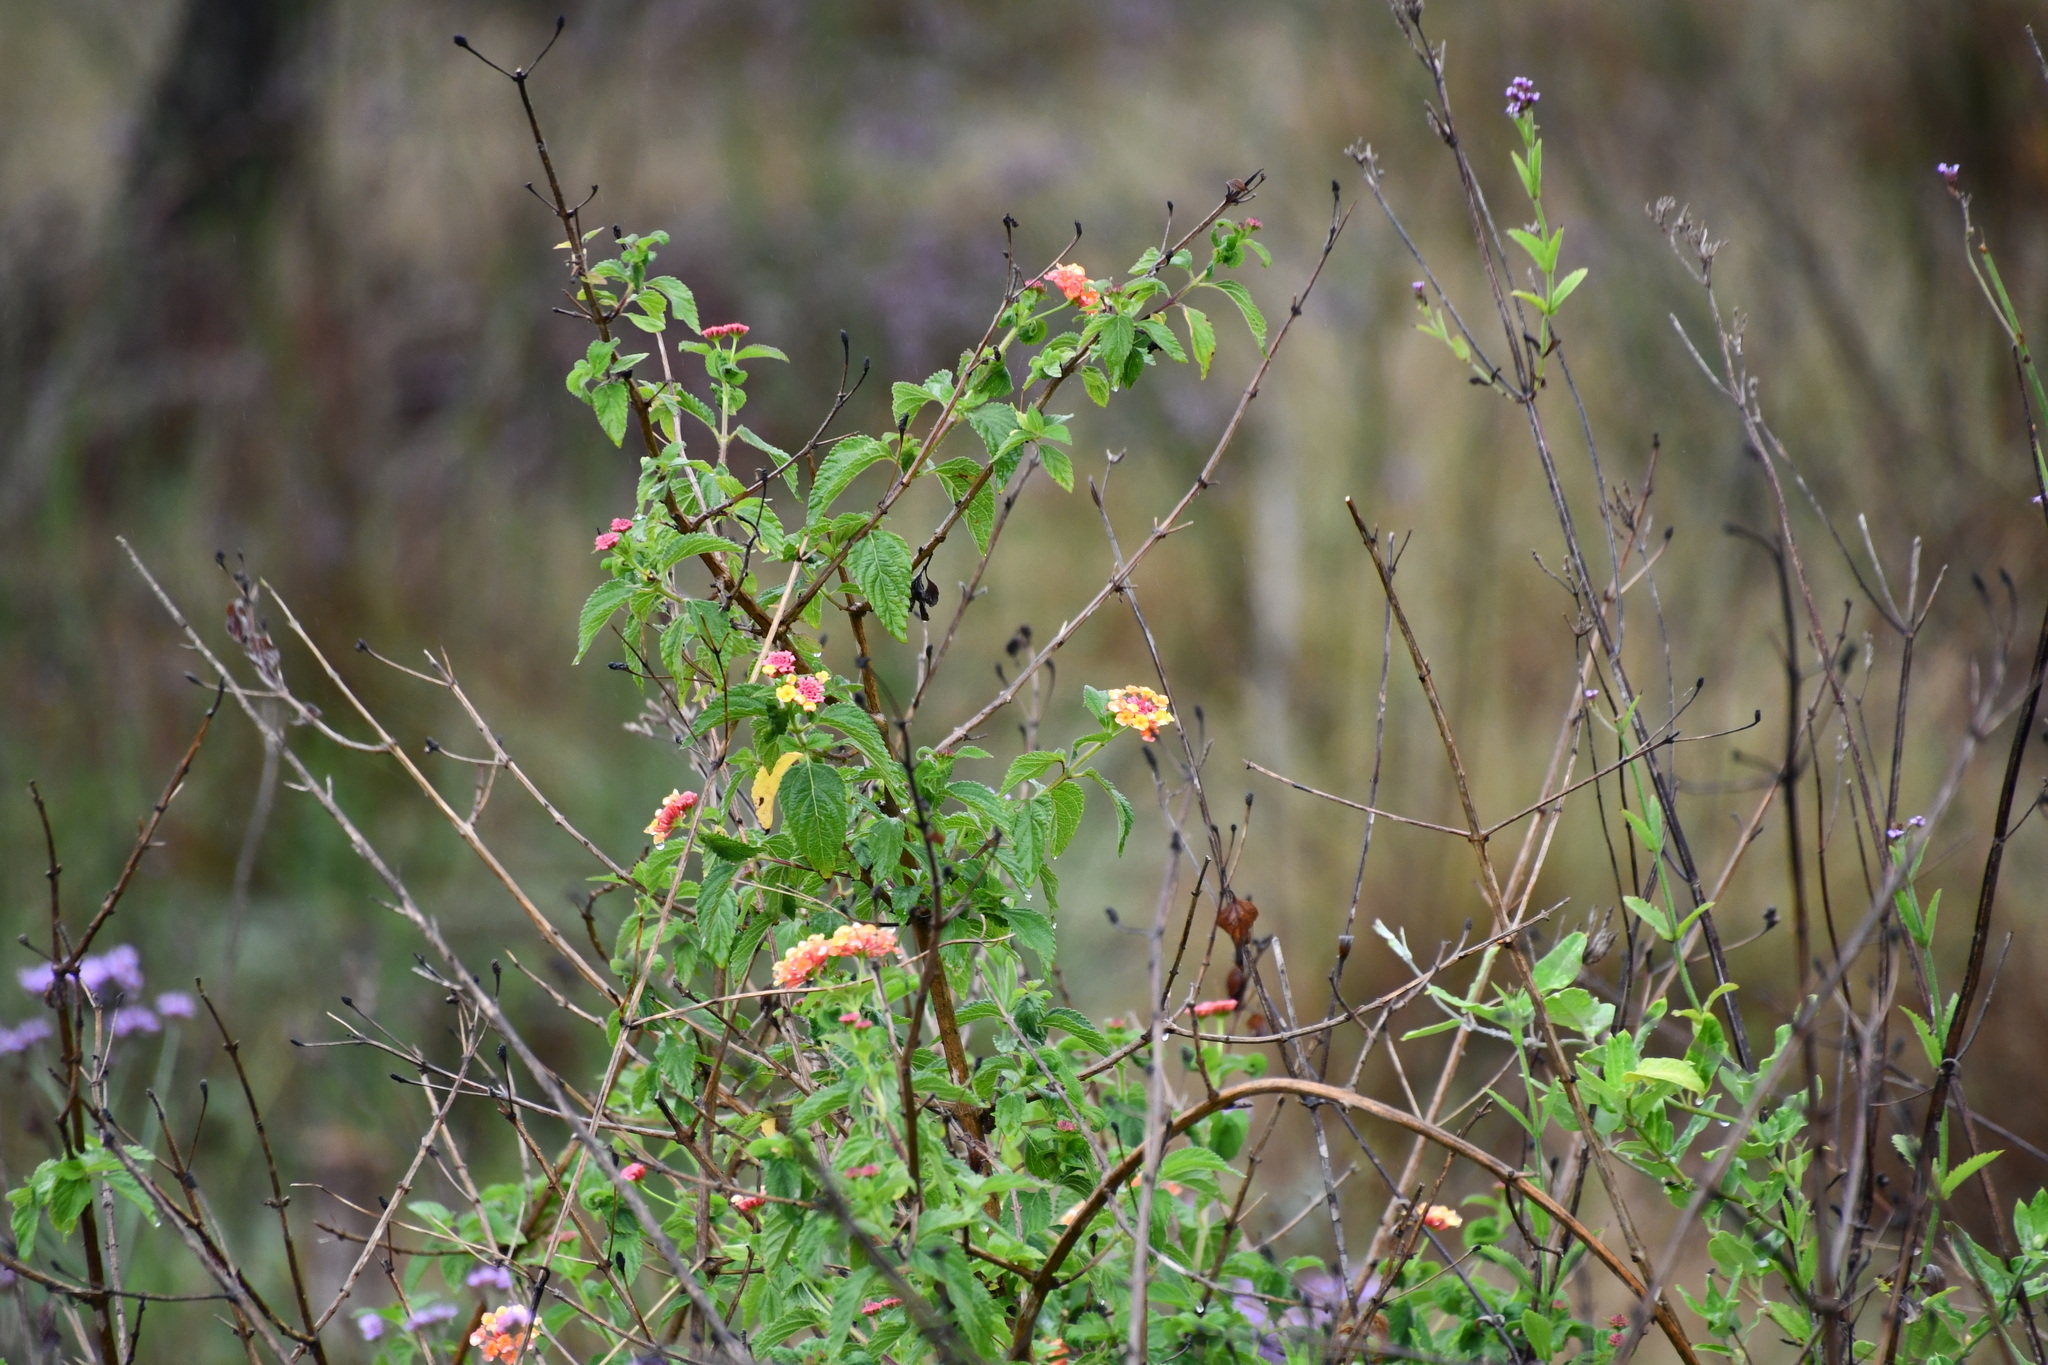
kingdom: Plantae
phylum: Tracheophyta
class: Magnoliopsida
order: Lamiales
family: Verbenaceae
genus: Lantana
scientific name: Lantana camara
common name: Lantana
